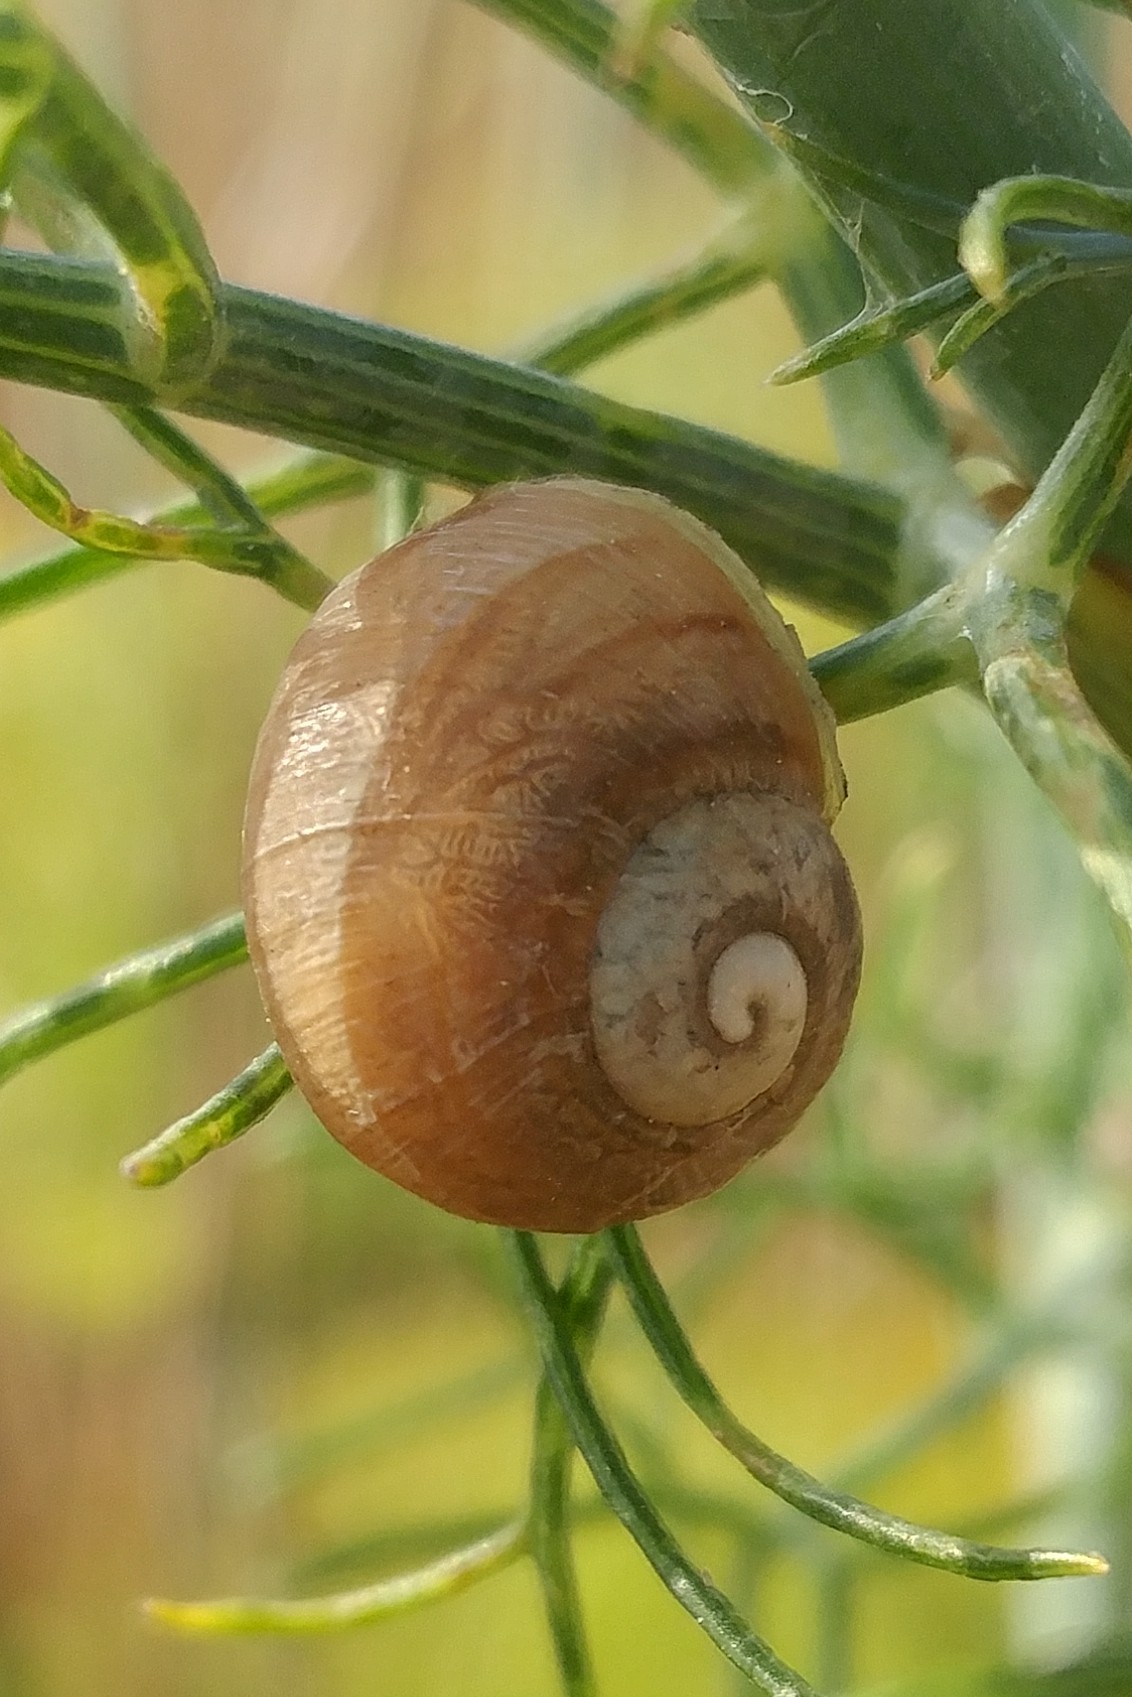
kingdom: Animalia
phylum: Mollusca
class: Gastropoda
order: Stylommatophora
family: Helicidae
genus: Cornu
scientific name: Cornu aspersum
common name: Brown garden snail
